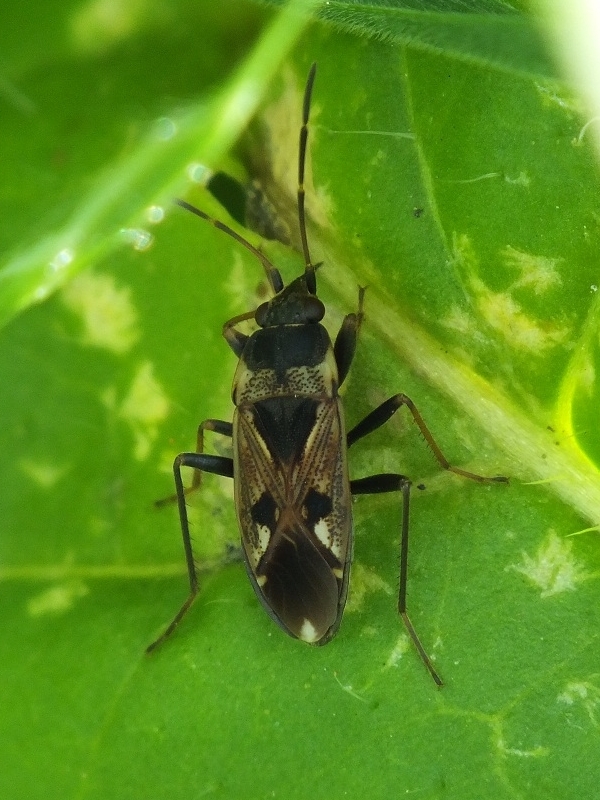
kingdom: Animalia
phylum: Arthropoda
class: Insecta
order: Hemiptera
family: Rhyparochromidae
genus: Rhyparochromus
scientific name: Rhyparochromus vulgaris
